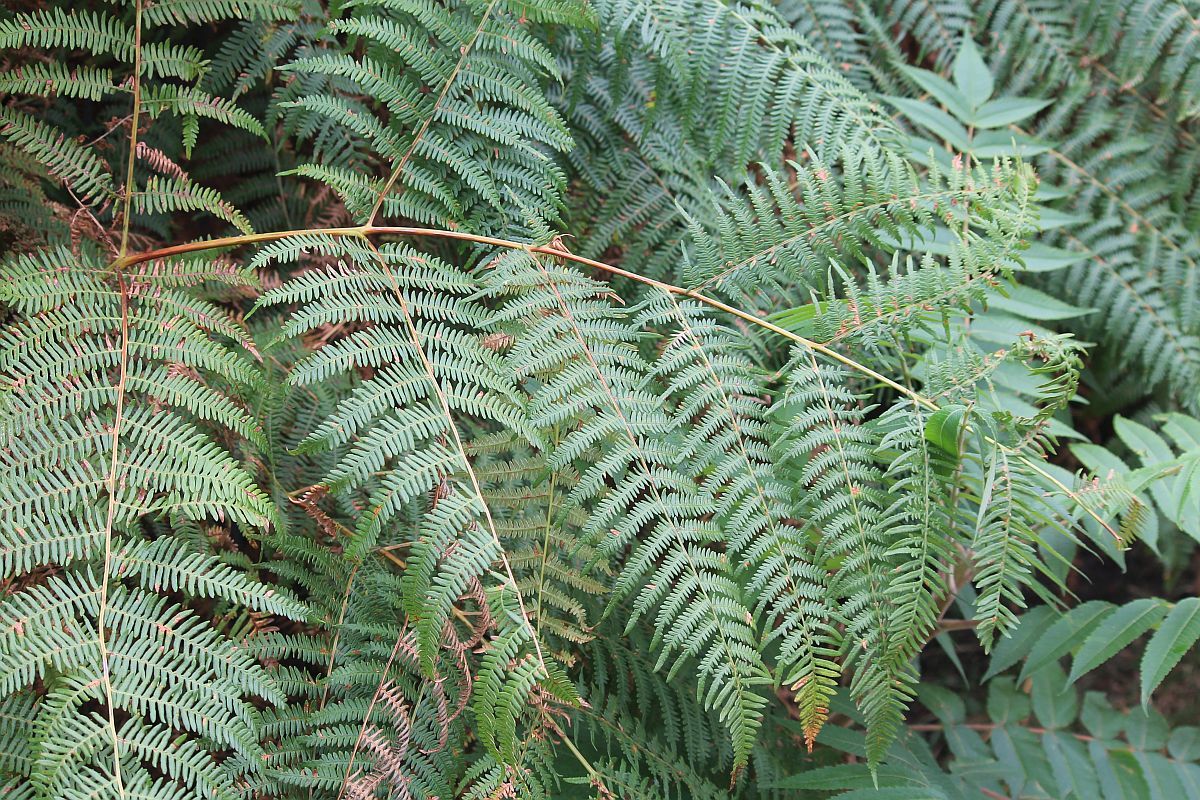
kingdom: Plantae
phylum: Tracheophyta
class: Polypodiopsida
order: Polypodiales
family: Dennstaedtiaceae
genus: Pteridium
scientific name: Pteridium aquilinum
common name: Bracken
